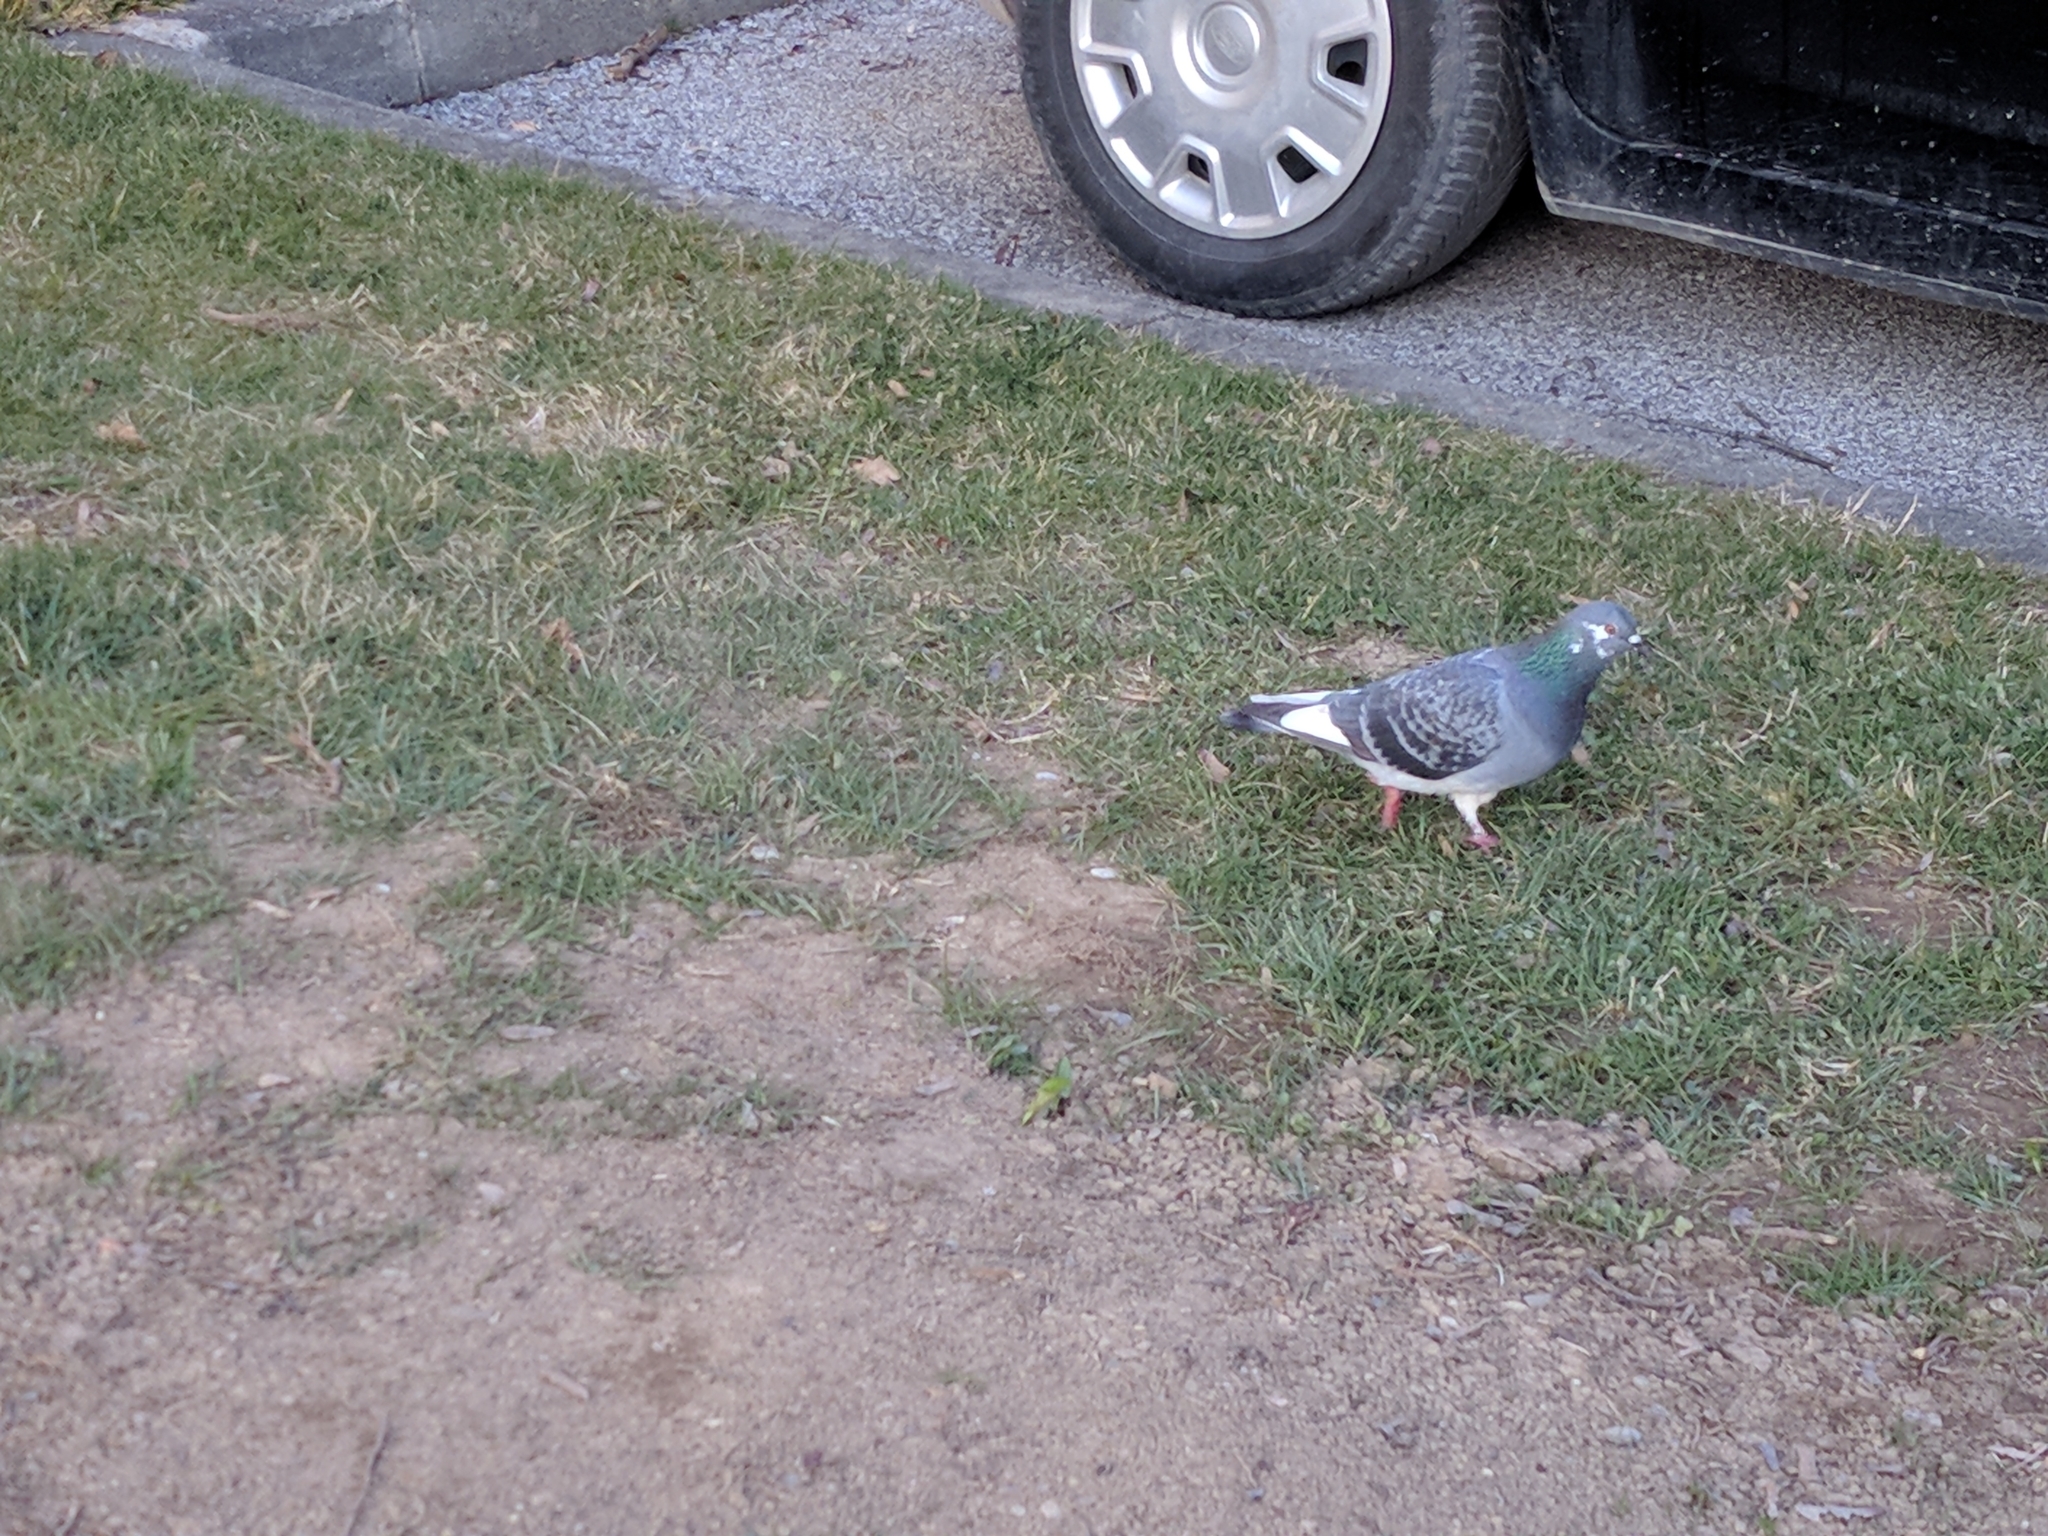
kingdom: Animalia
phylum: Chordata
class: Aves
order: Columbiformes
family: Columbidae
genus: Columba
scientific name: Columba livia
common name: Rock pigeon
